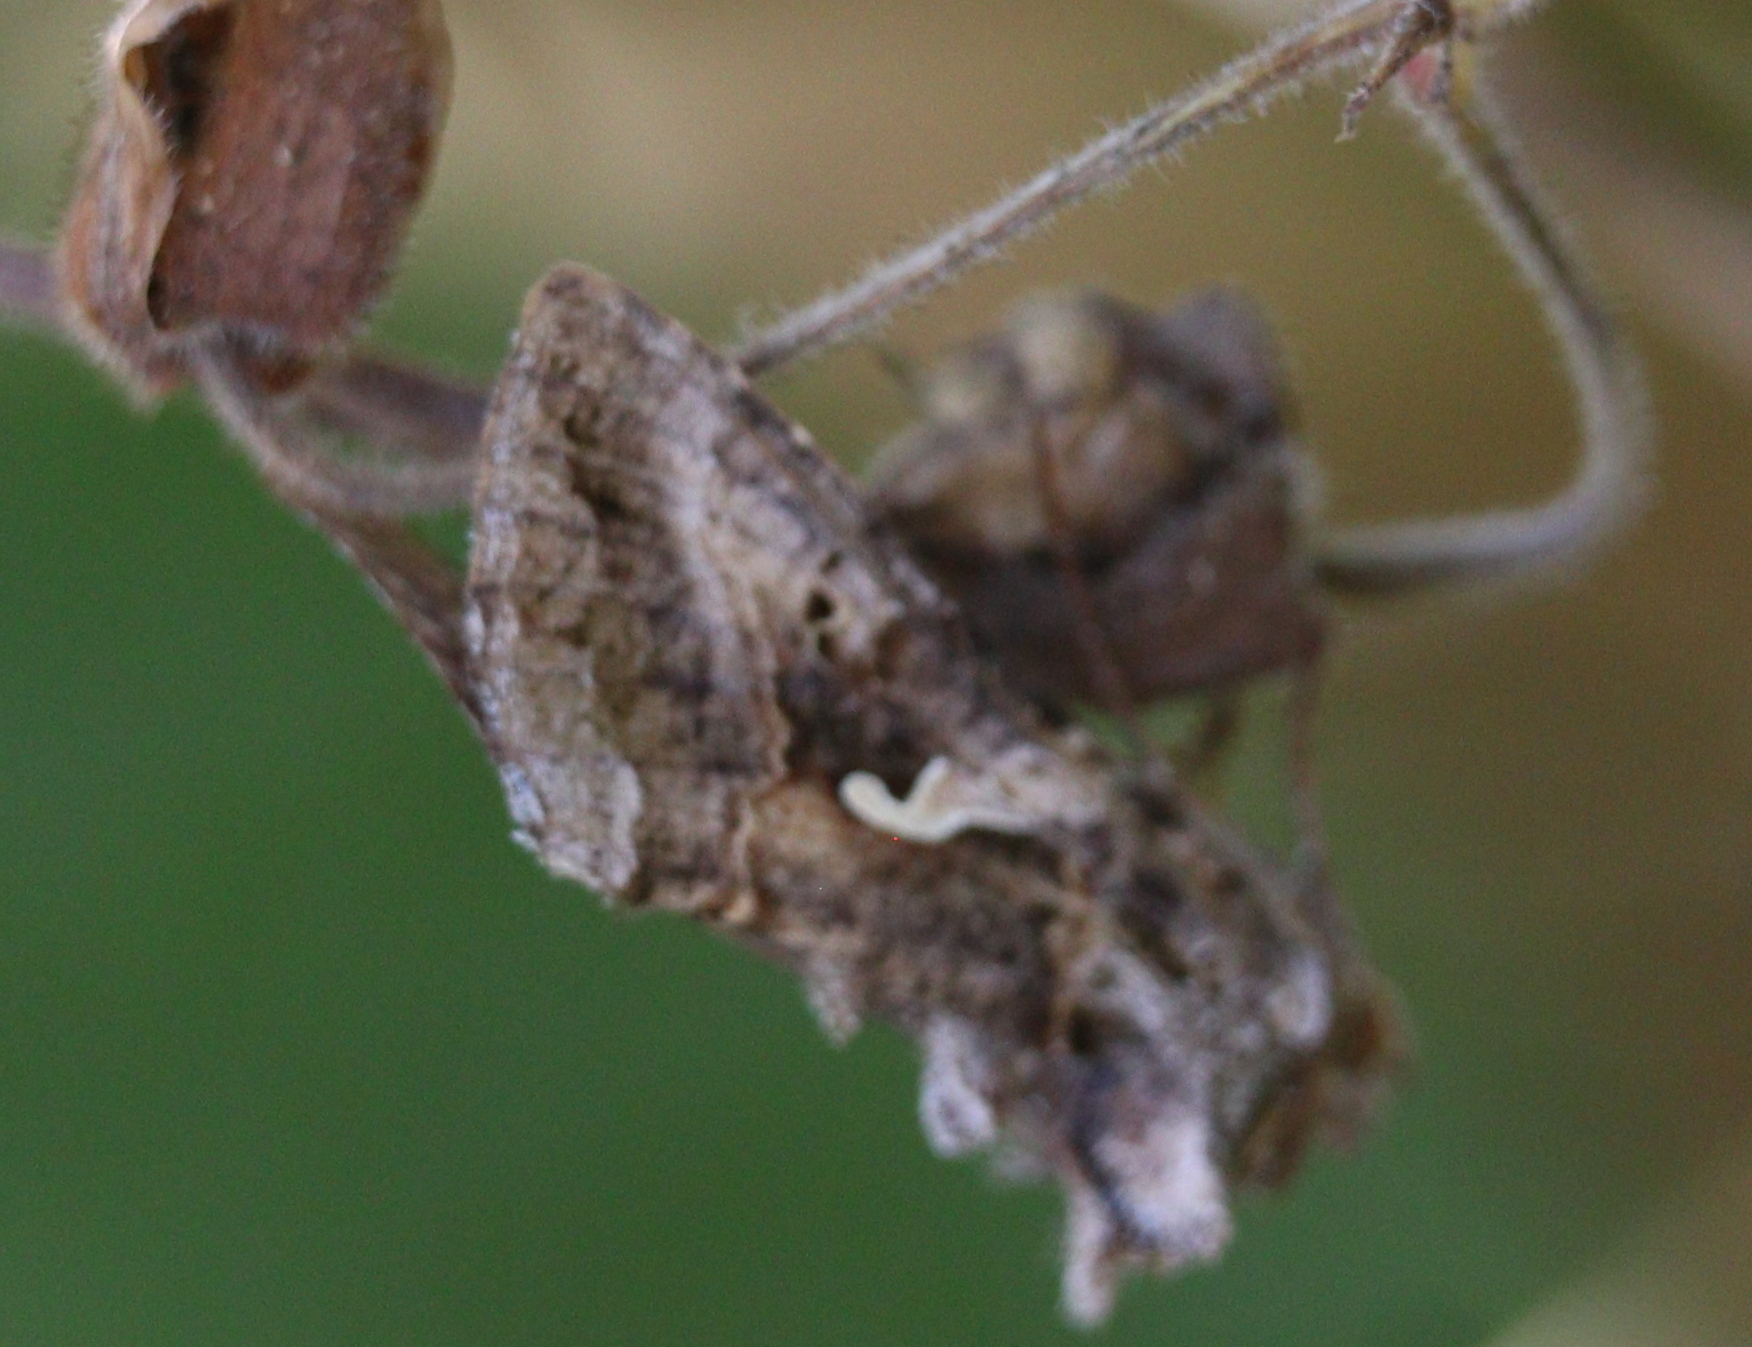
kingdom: Animalia
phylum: Arthropoda
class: Insecta
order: Lepidoptera
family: Noctuidae
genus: Autographa
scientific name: Autographa gamma
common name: Silver y
